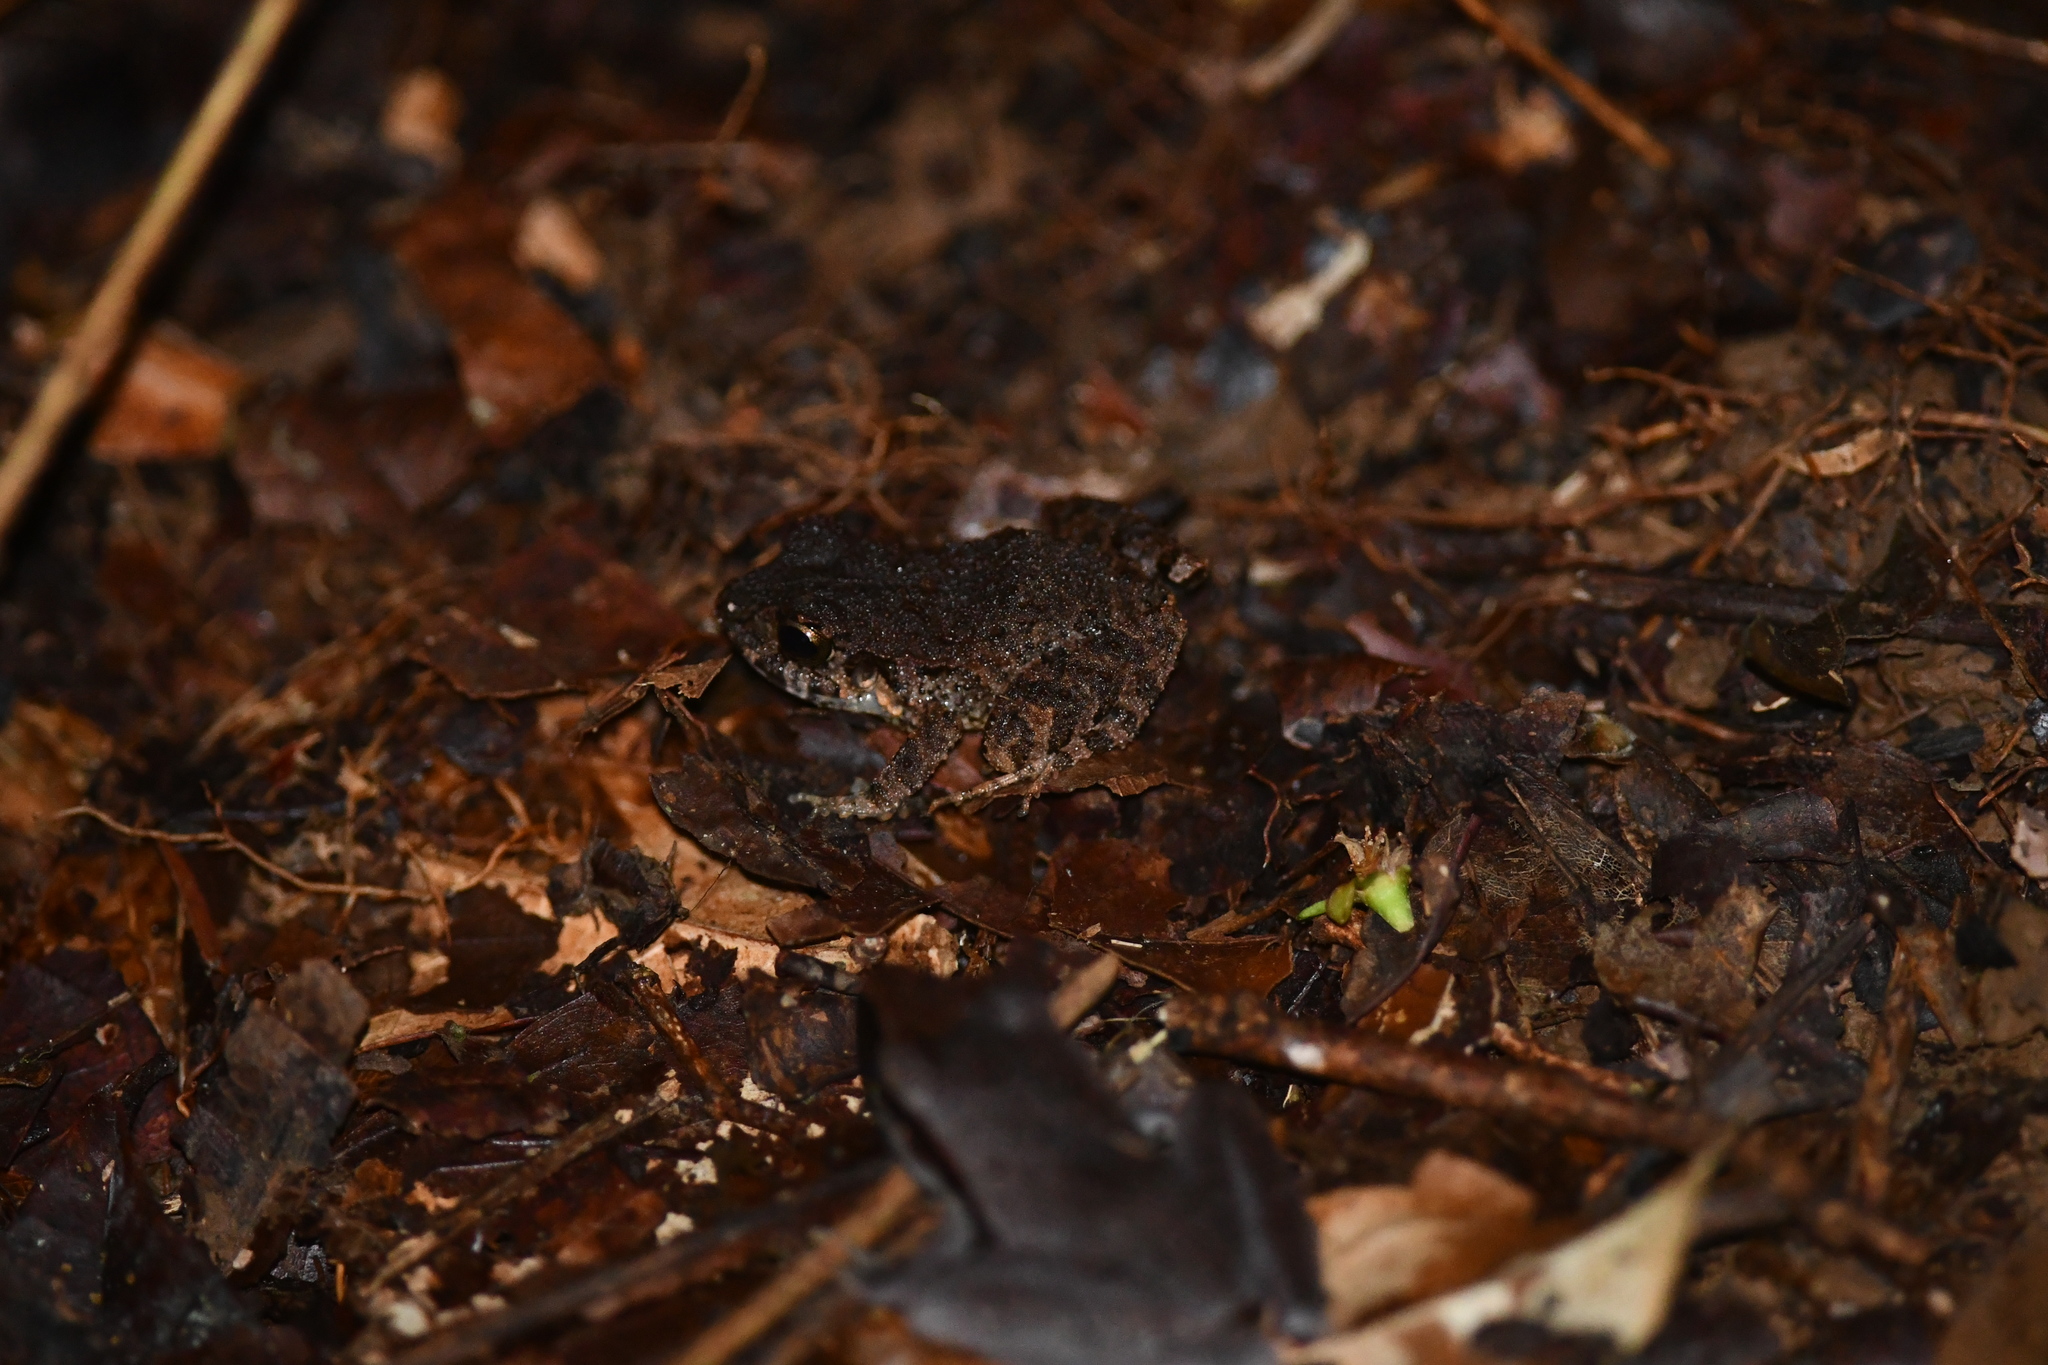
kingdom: Animalia
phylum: Chordata
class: Amphibia
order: Anura
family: Craugastoridae
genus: Craugastor
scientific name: Craugastor bransfordii
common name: Bransford's robber frog
